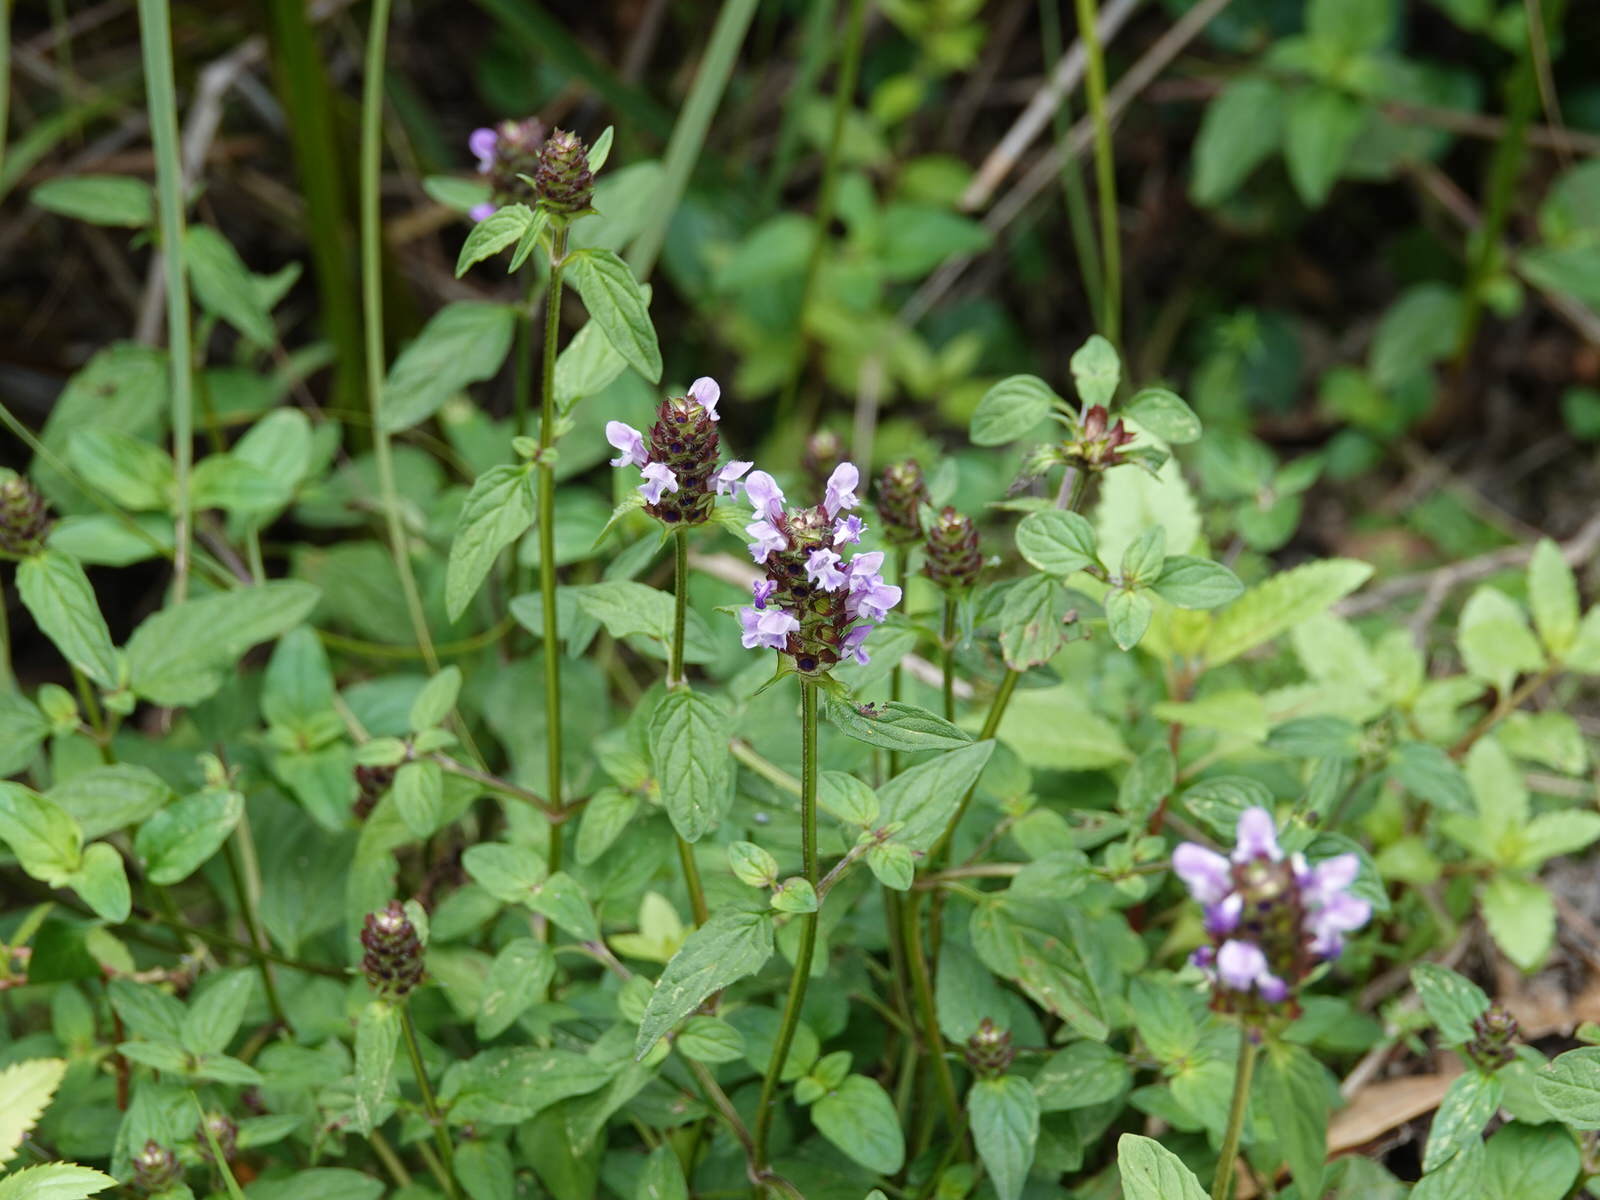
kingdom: Plantae
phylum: Tracheophyta
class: Magnoliopsida
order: Lamiales
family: Lamiaceae
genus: Prunella
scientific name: Prunella vulgaris
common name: Heal-all
